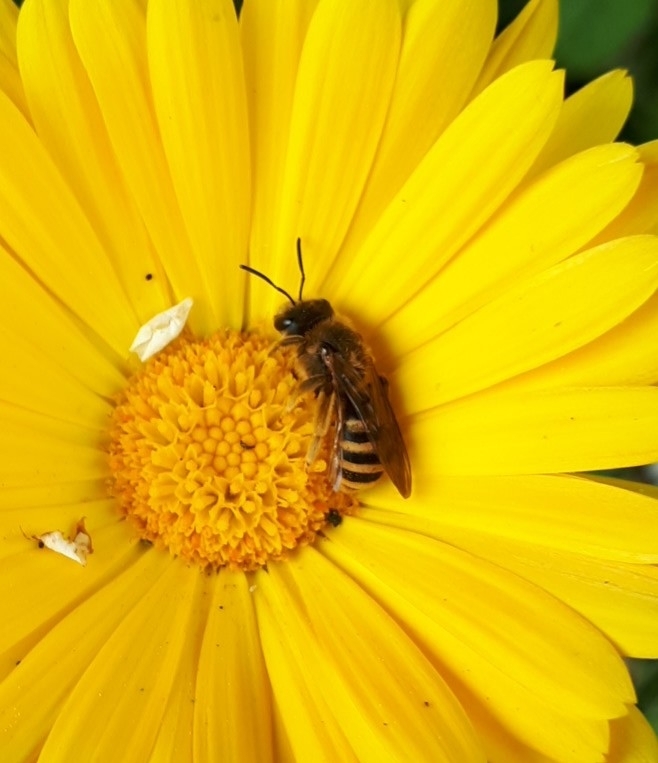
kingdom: Animalia
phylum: Arthropoda
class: Insecta
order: Hymenoptera
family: Halictidae
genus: Halictus
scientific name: Halictus scabiosae
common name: Great banded furrow bee
